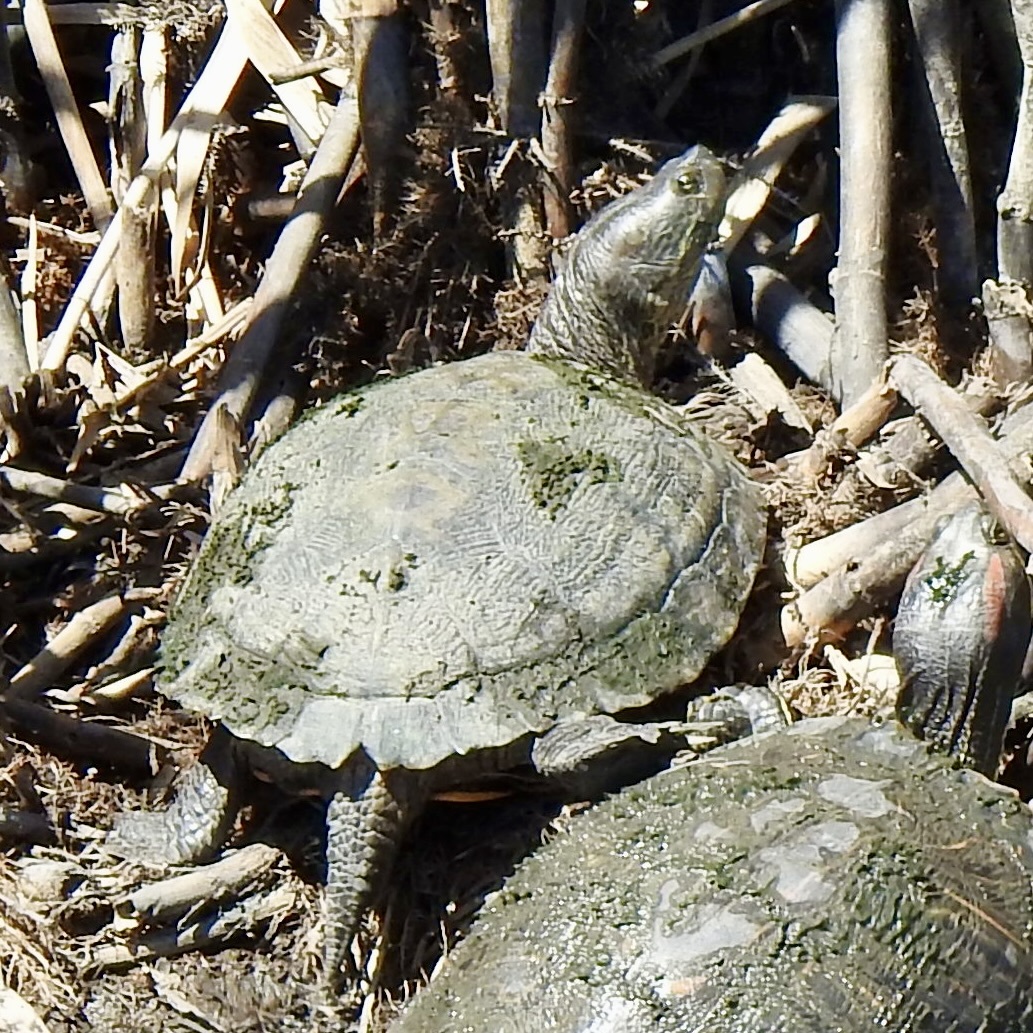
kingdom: Animalia
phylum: Chordata
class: Testudines
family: Emydidae
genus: Trachemys
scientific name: Trachemys scripta
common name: Slider
